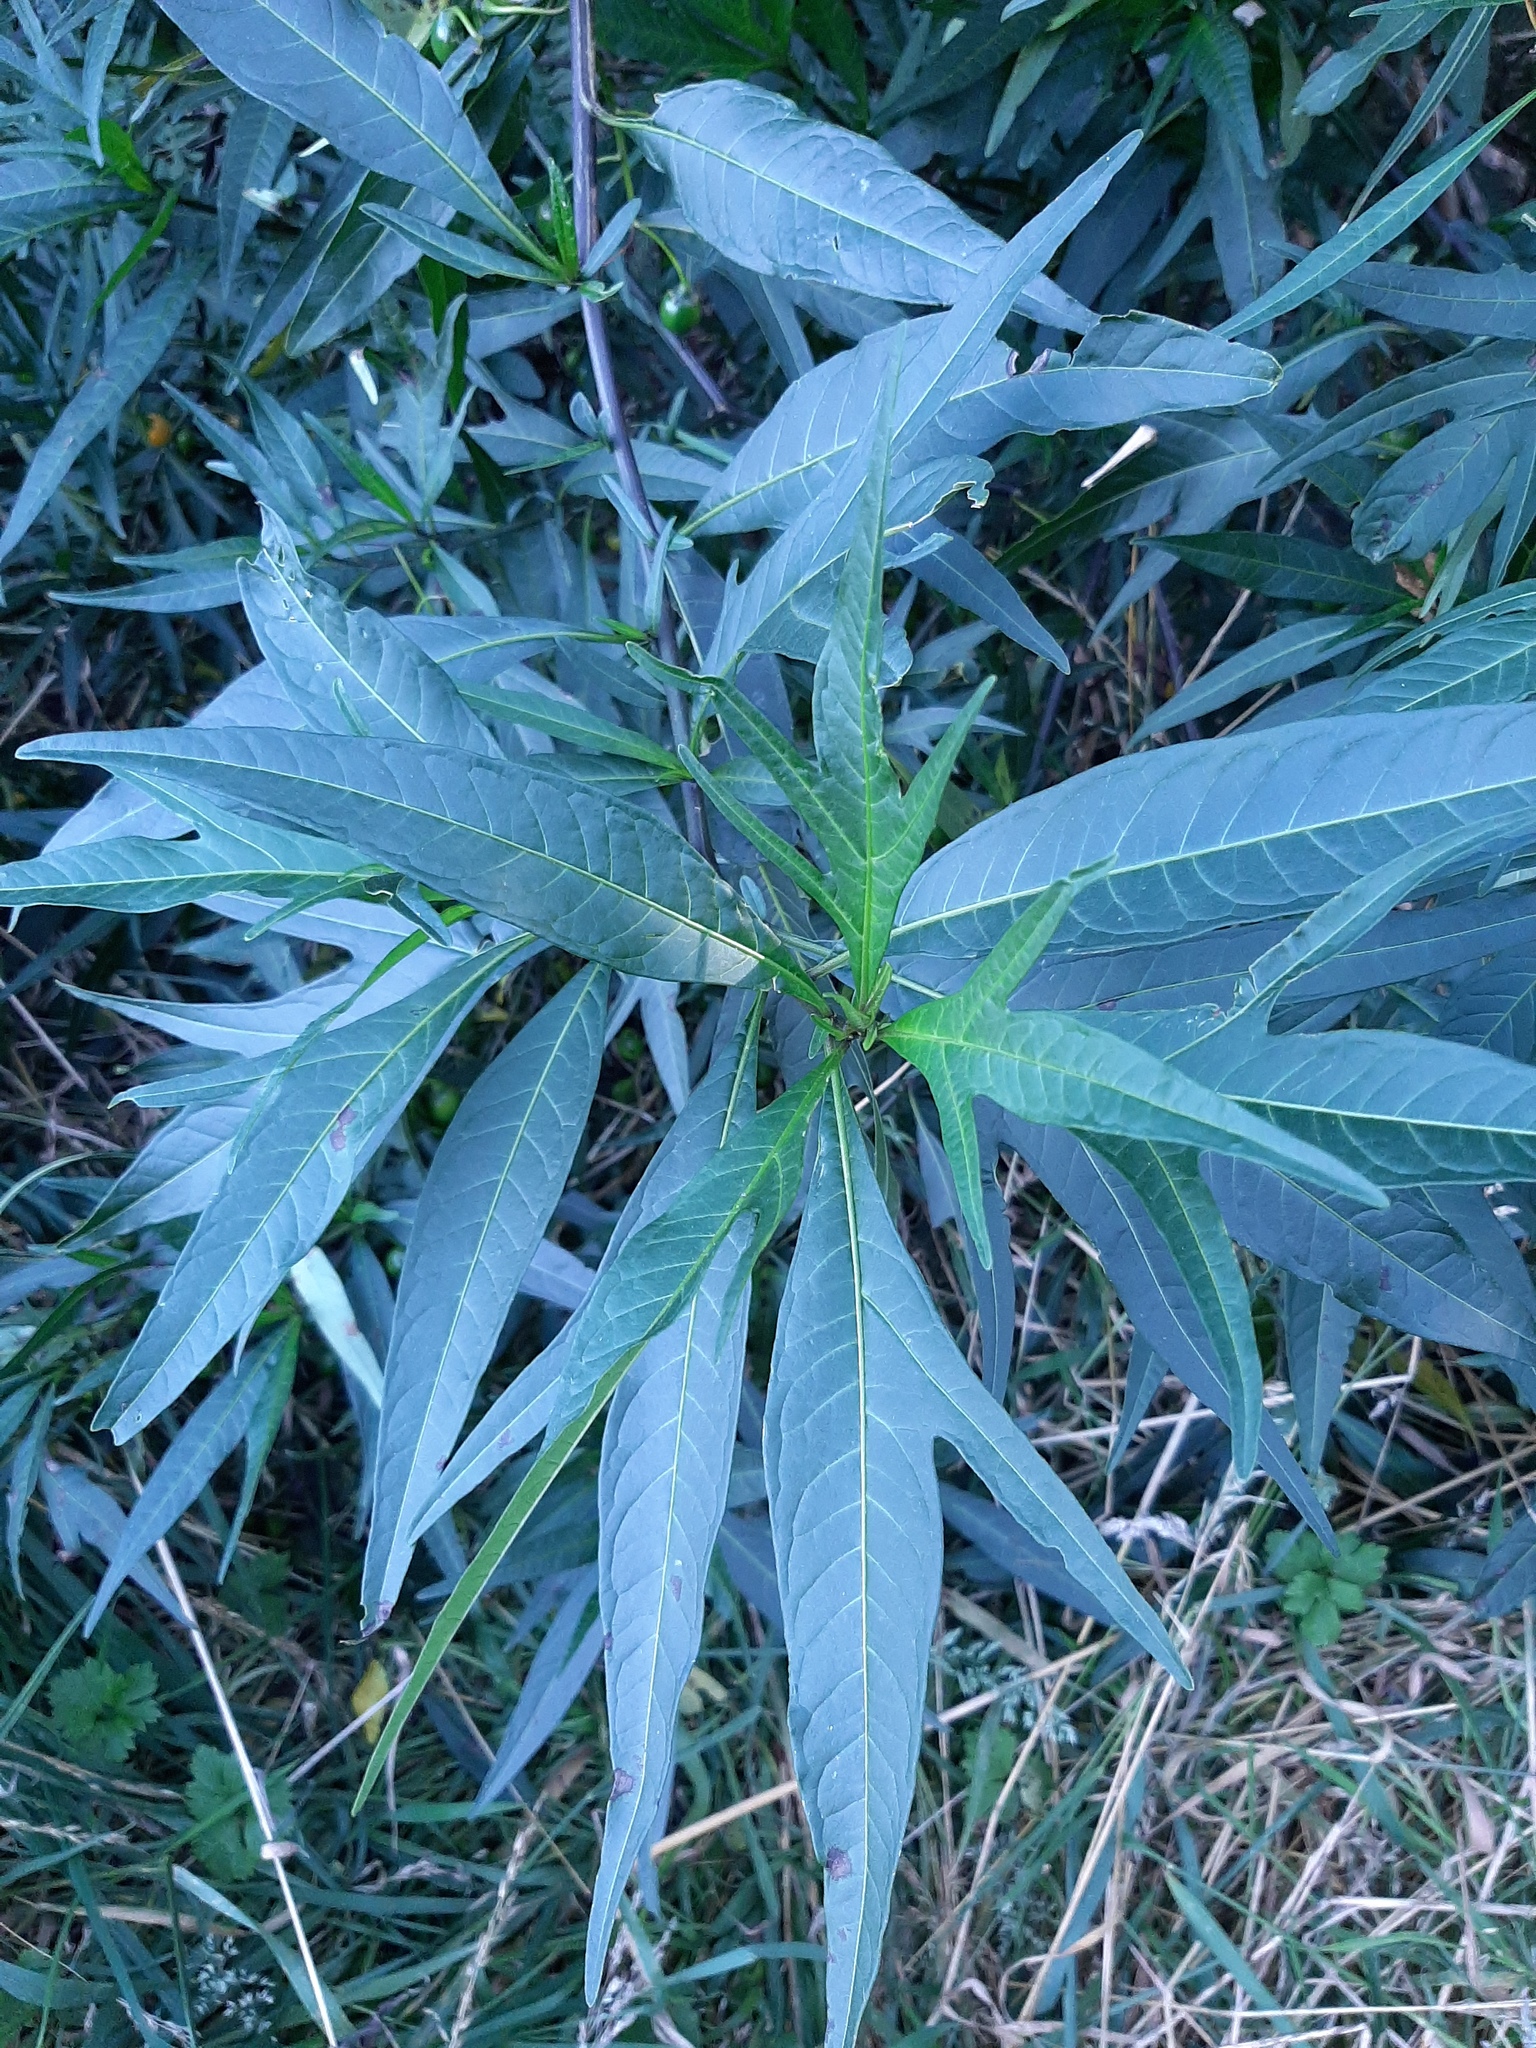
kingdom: Plantae
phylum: Tracheophyta
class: Magnoliopsida
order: Solanales
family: Solanaceae
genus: Solanum
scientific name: Solanum laciniatum
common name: Kangaroo-apple
